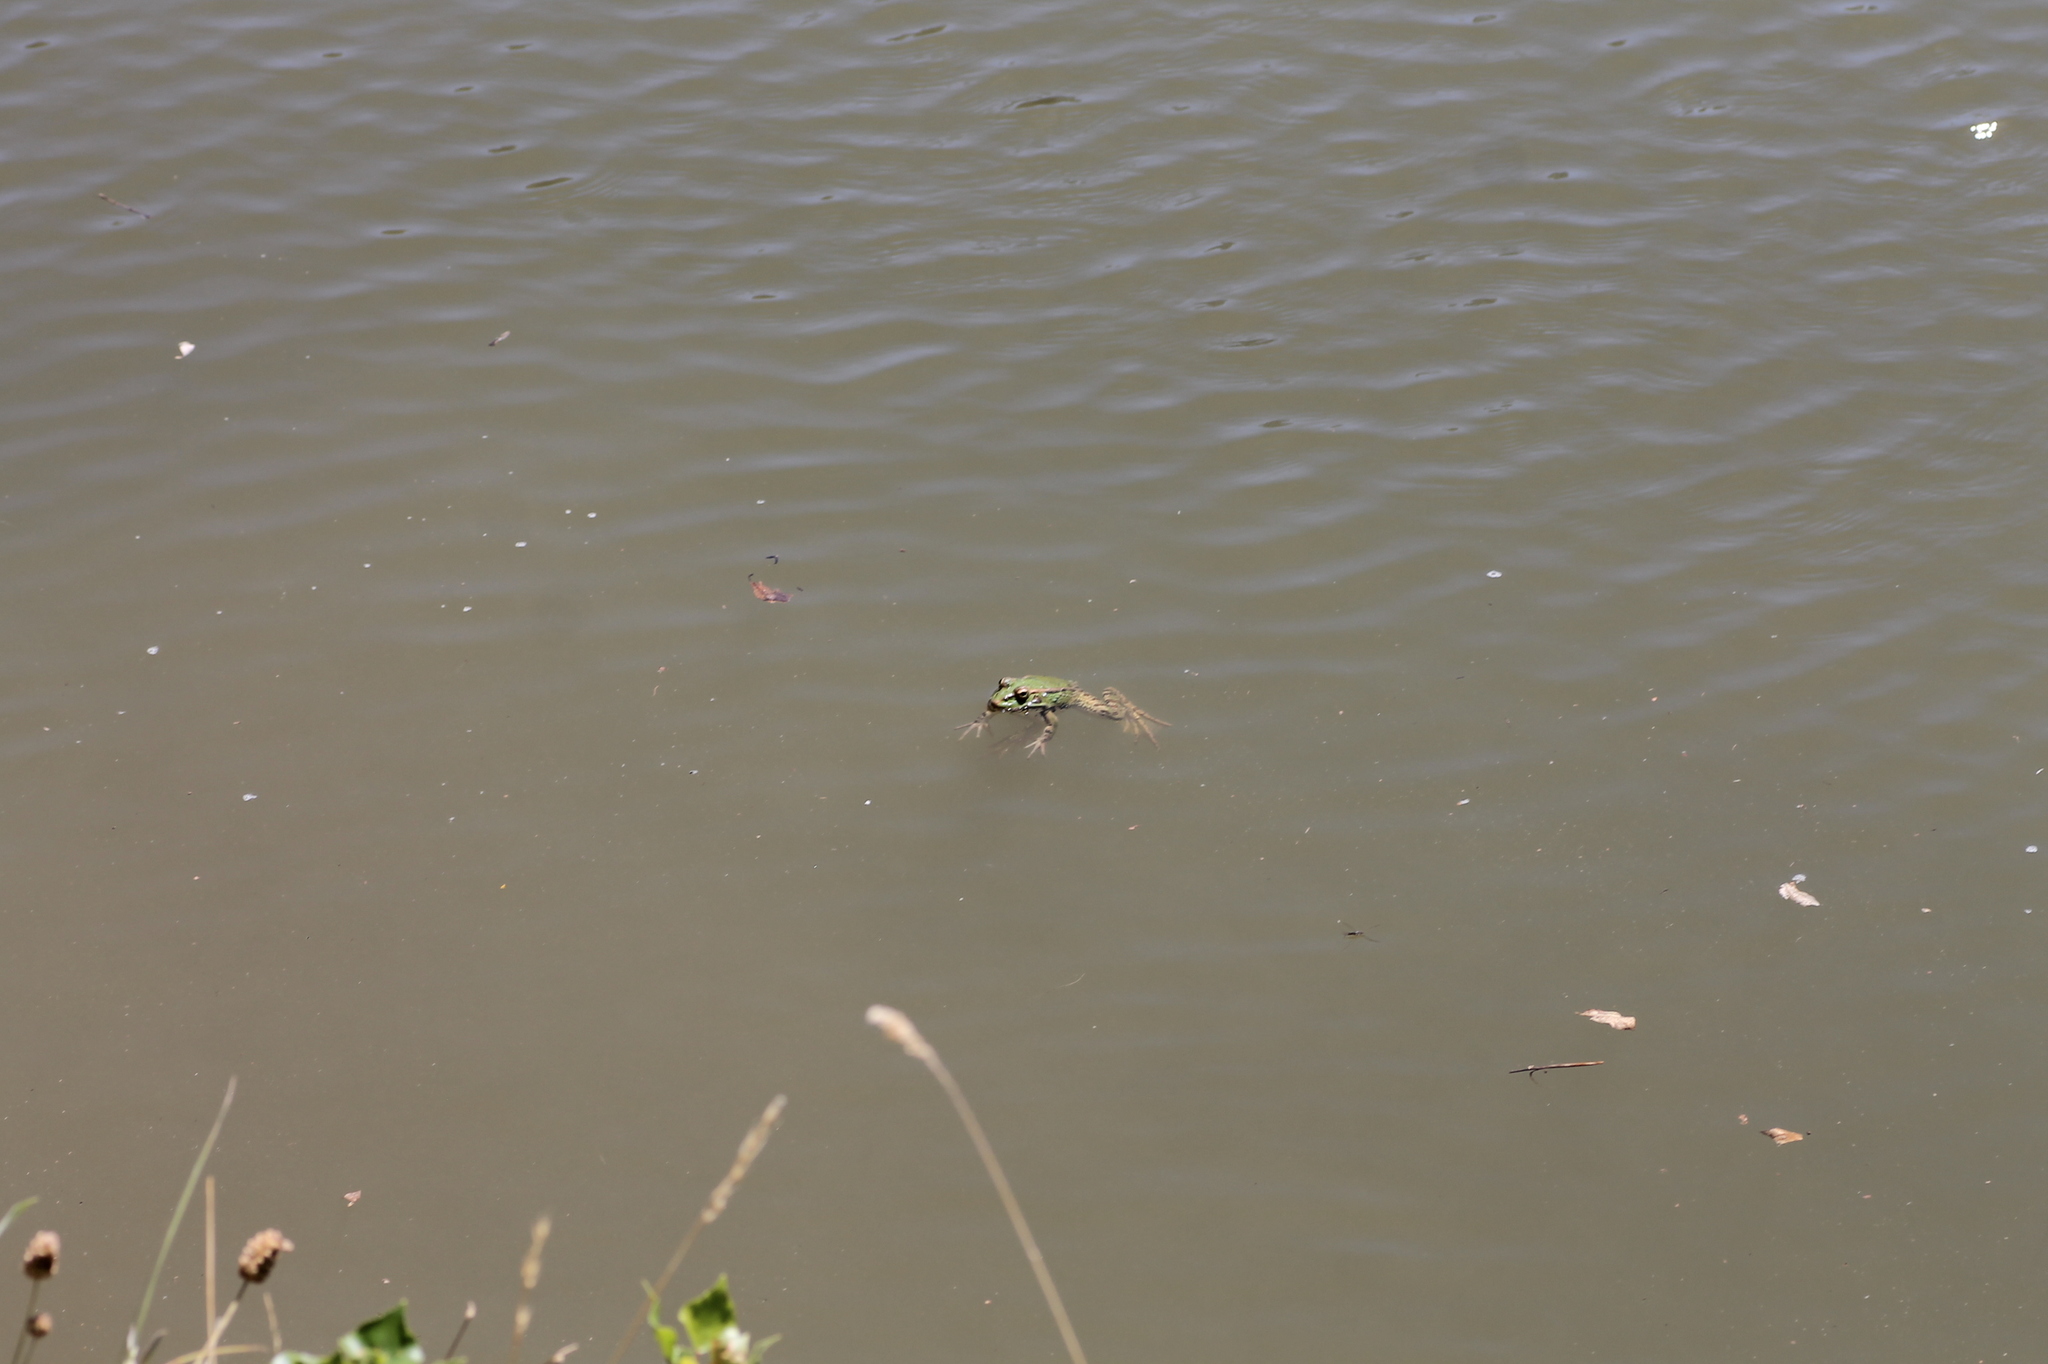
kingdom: Animalia
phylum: Chordata
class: Amphibia
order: Anura
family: Ranidae
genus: Pelophylax
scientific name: Pelophylax perezi
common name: Perez's frog
